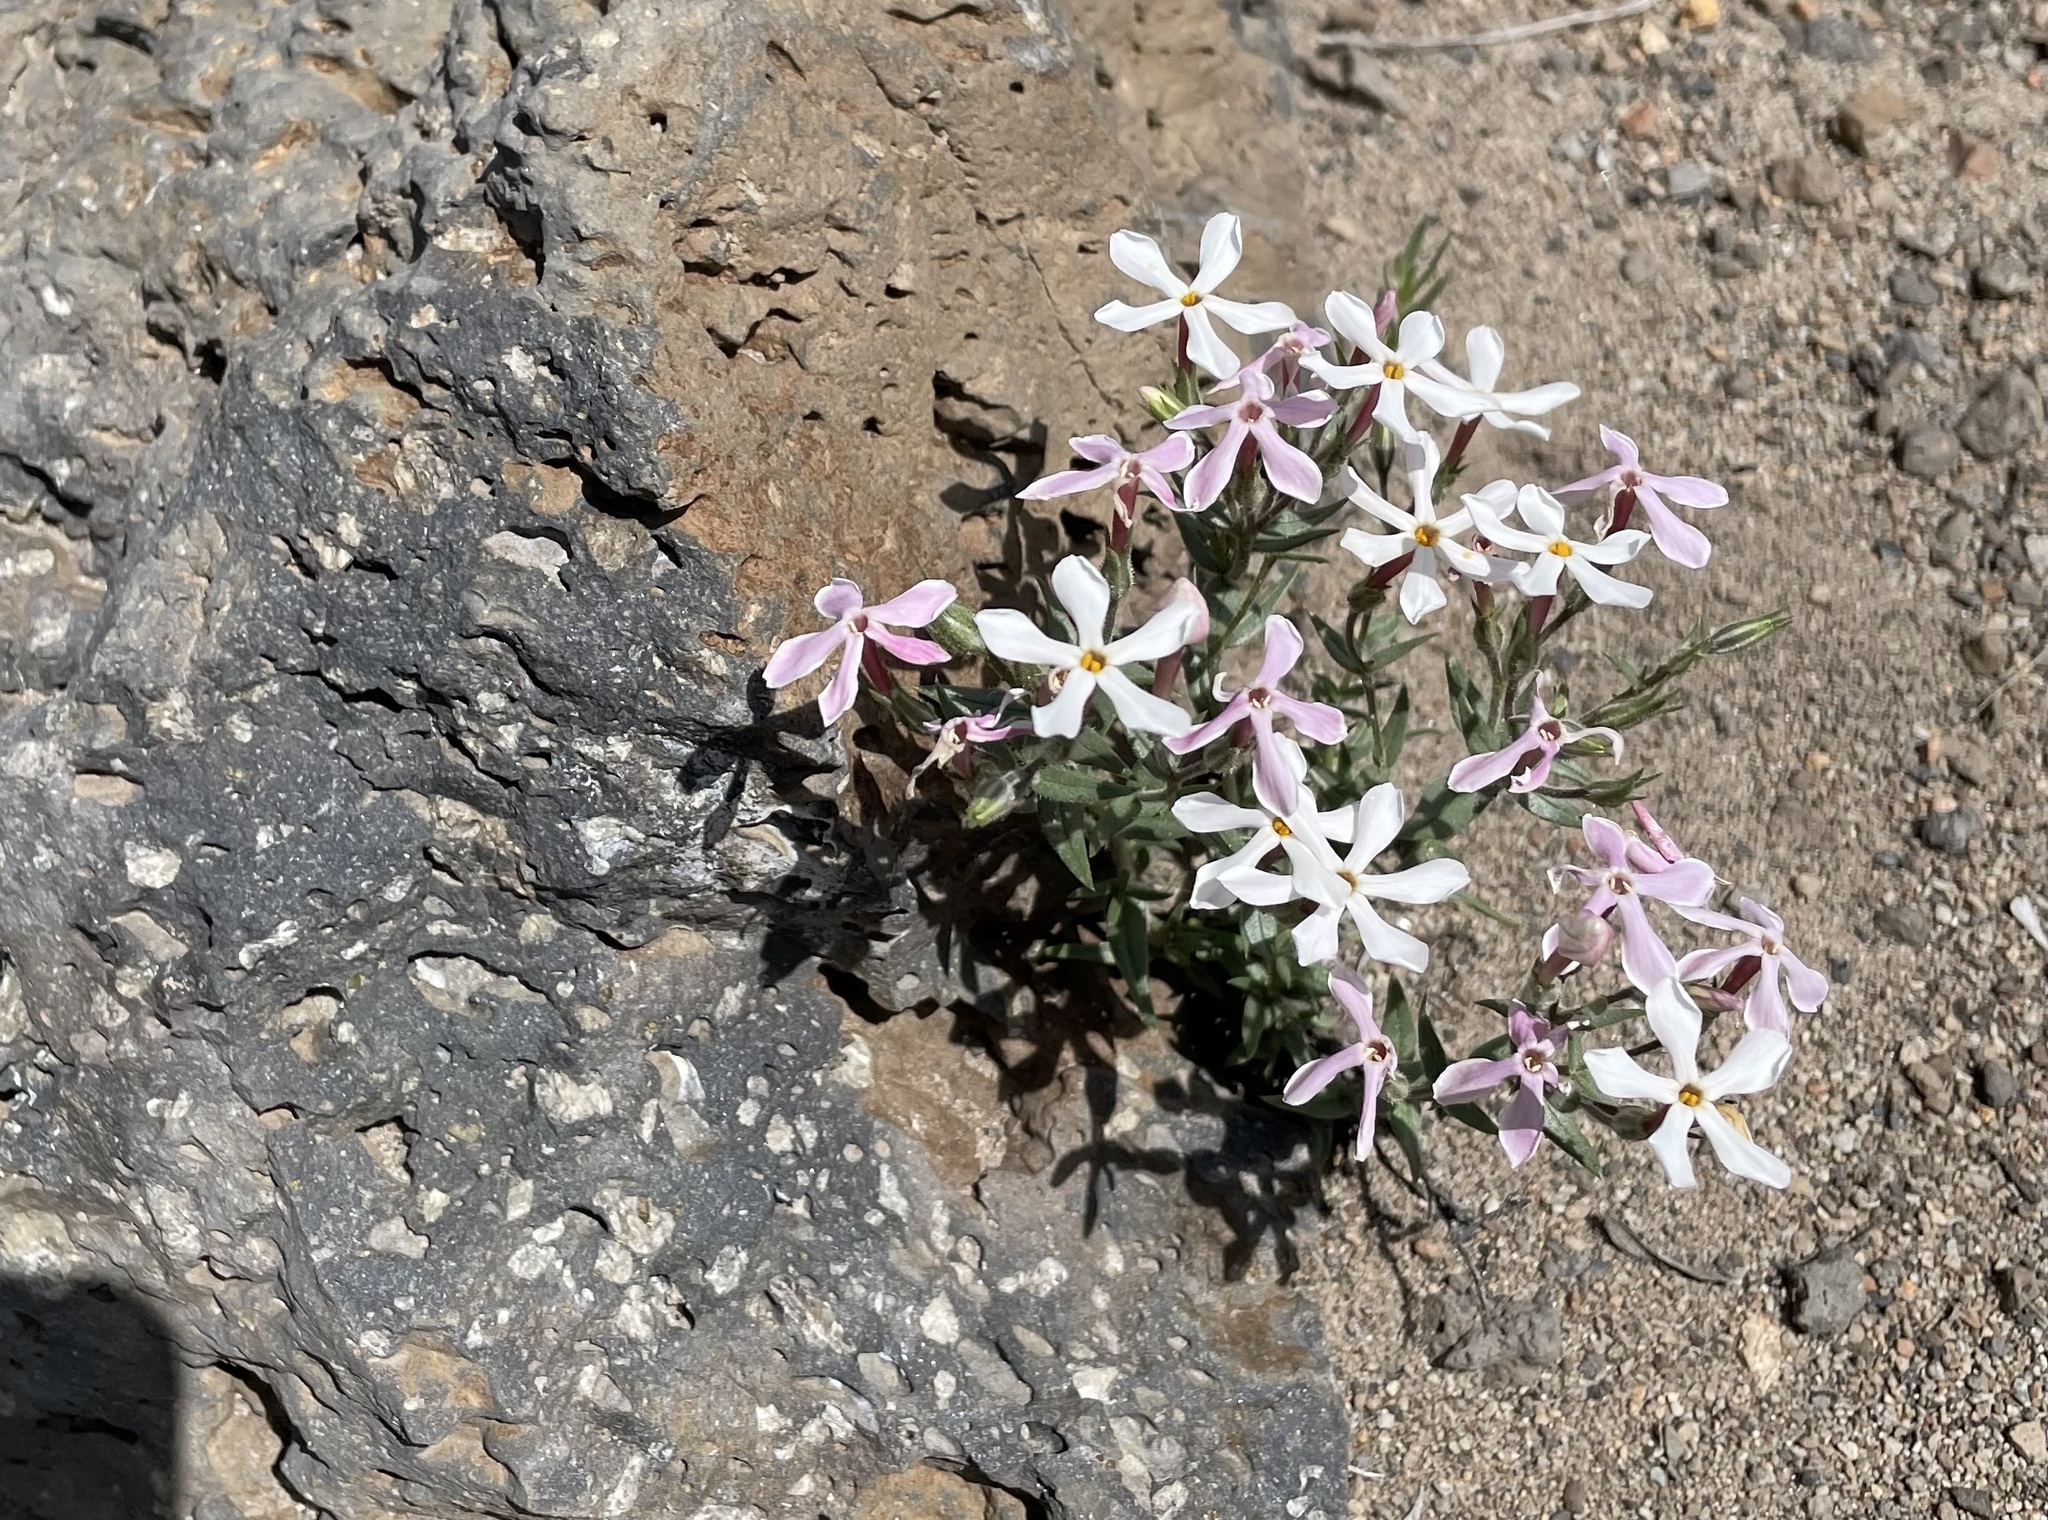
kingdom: Plantae
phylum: Tracheophyta
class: Magnoliopsida
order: Ericales
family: Polemoniaceae
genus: Phlox
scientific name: Phlox longifolia
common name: Longleaf phlox
